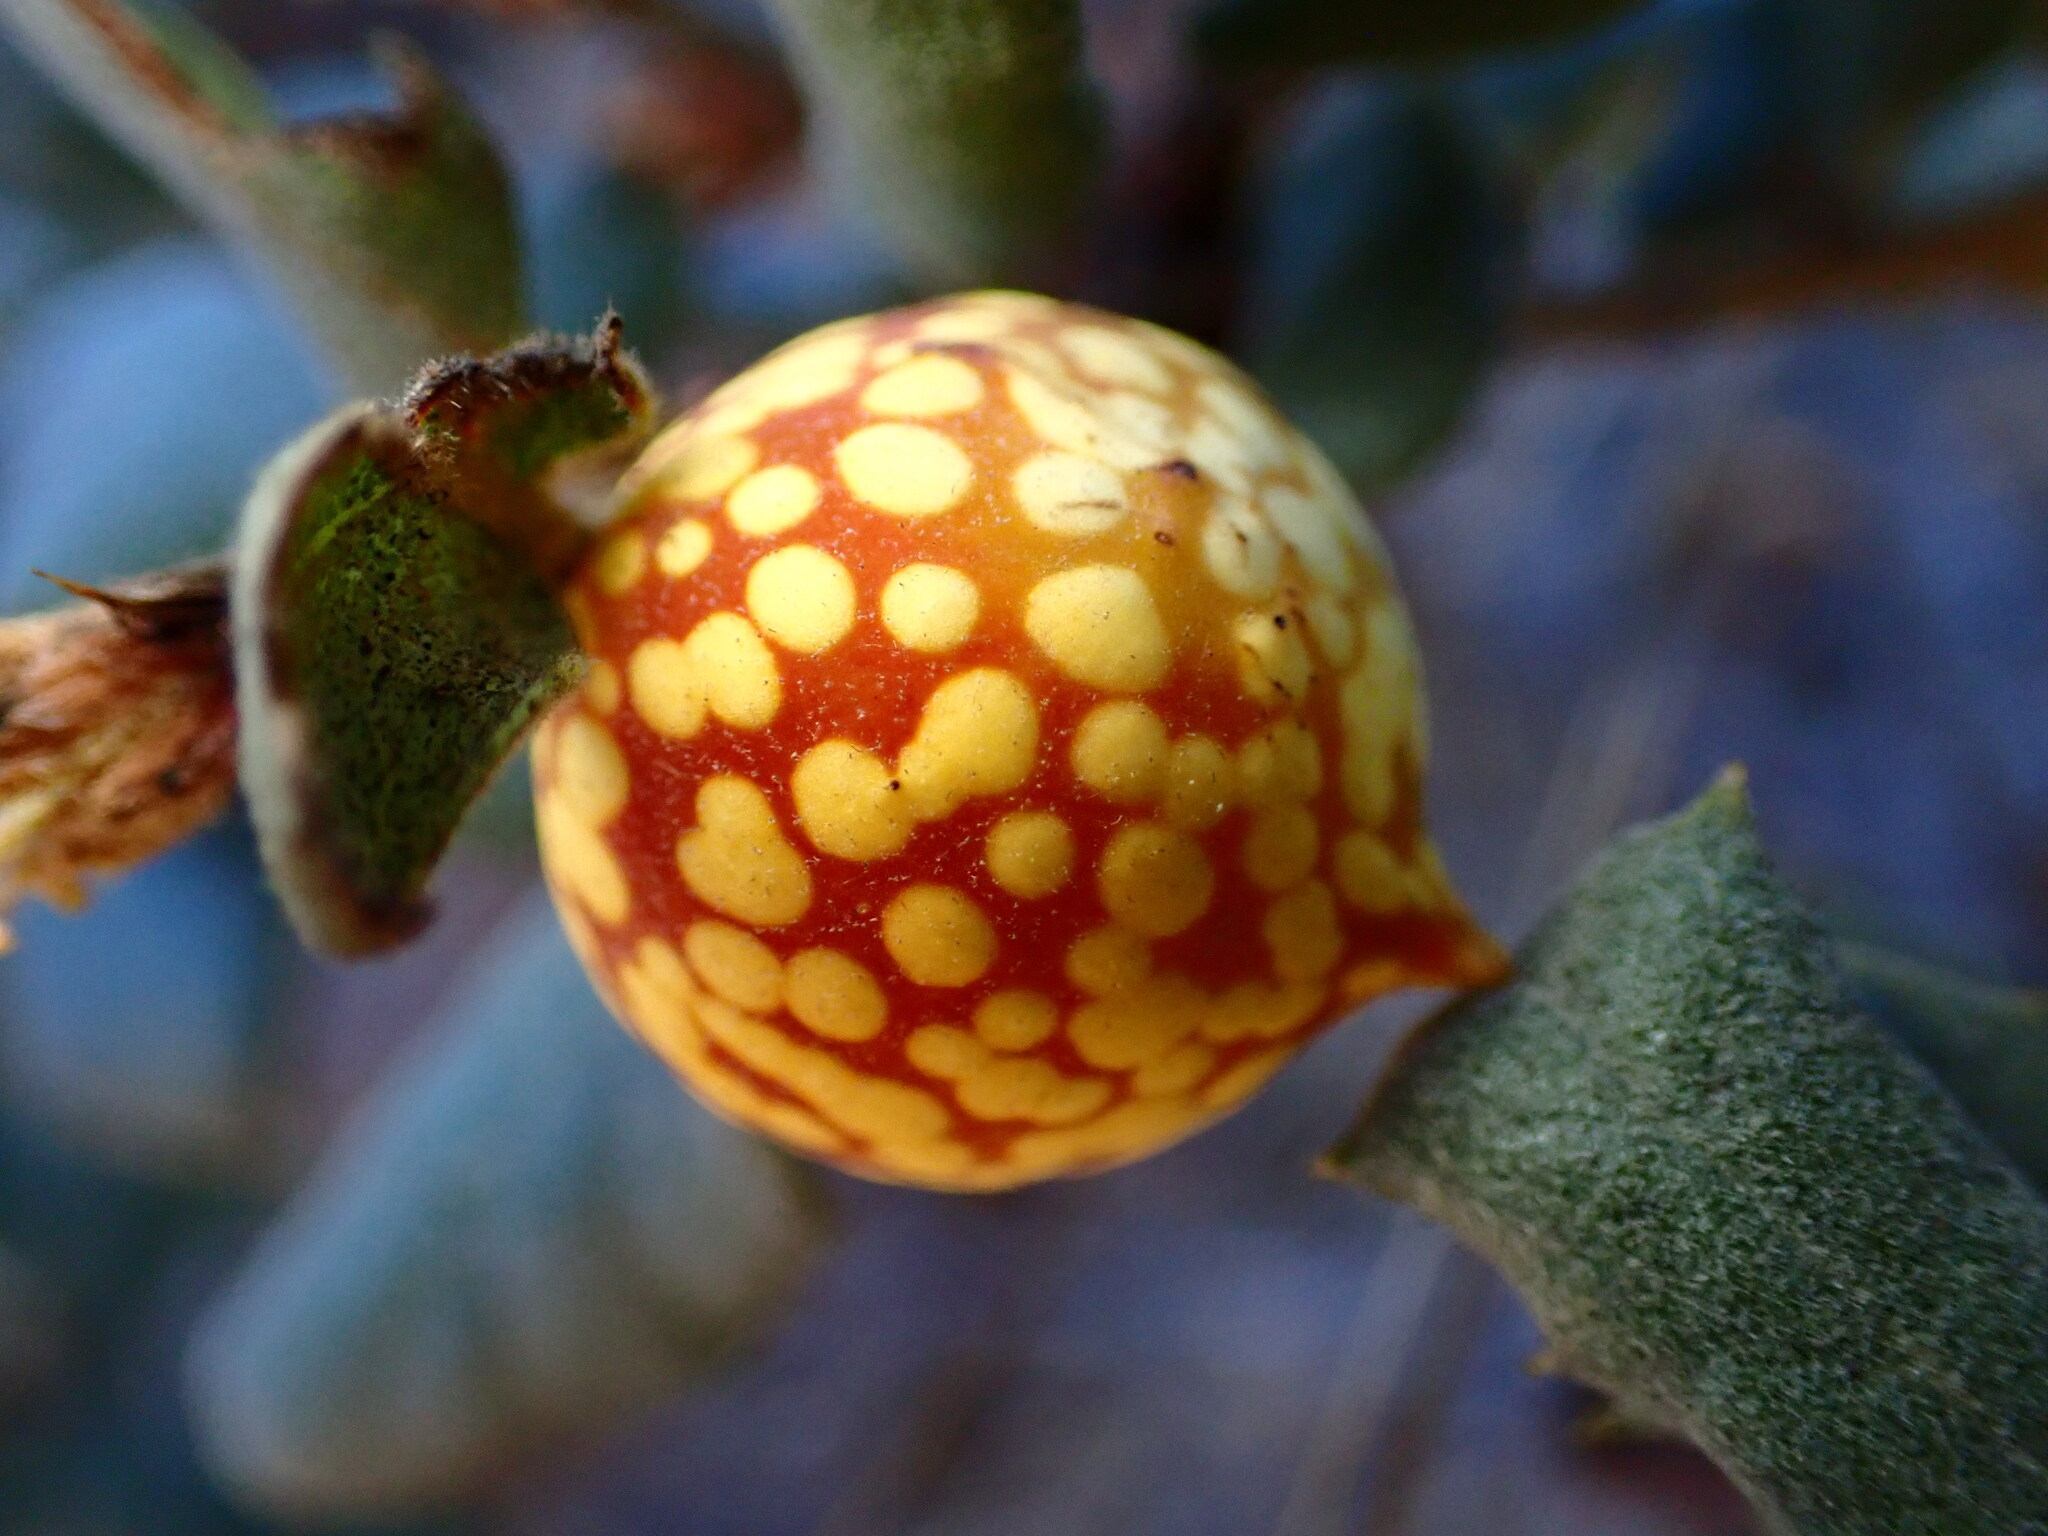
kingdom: Animalia
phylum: Arthropoda
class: Insecta
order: Hymenoptera
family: Cynipidae
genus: Burnettweldia
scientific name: Burnettweldia
